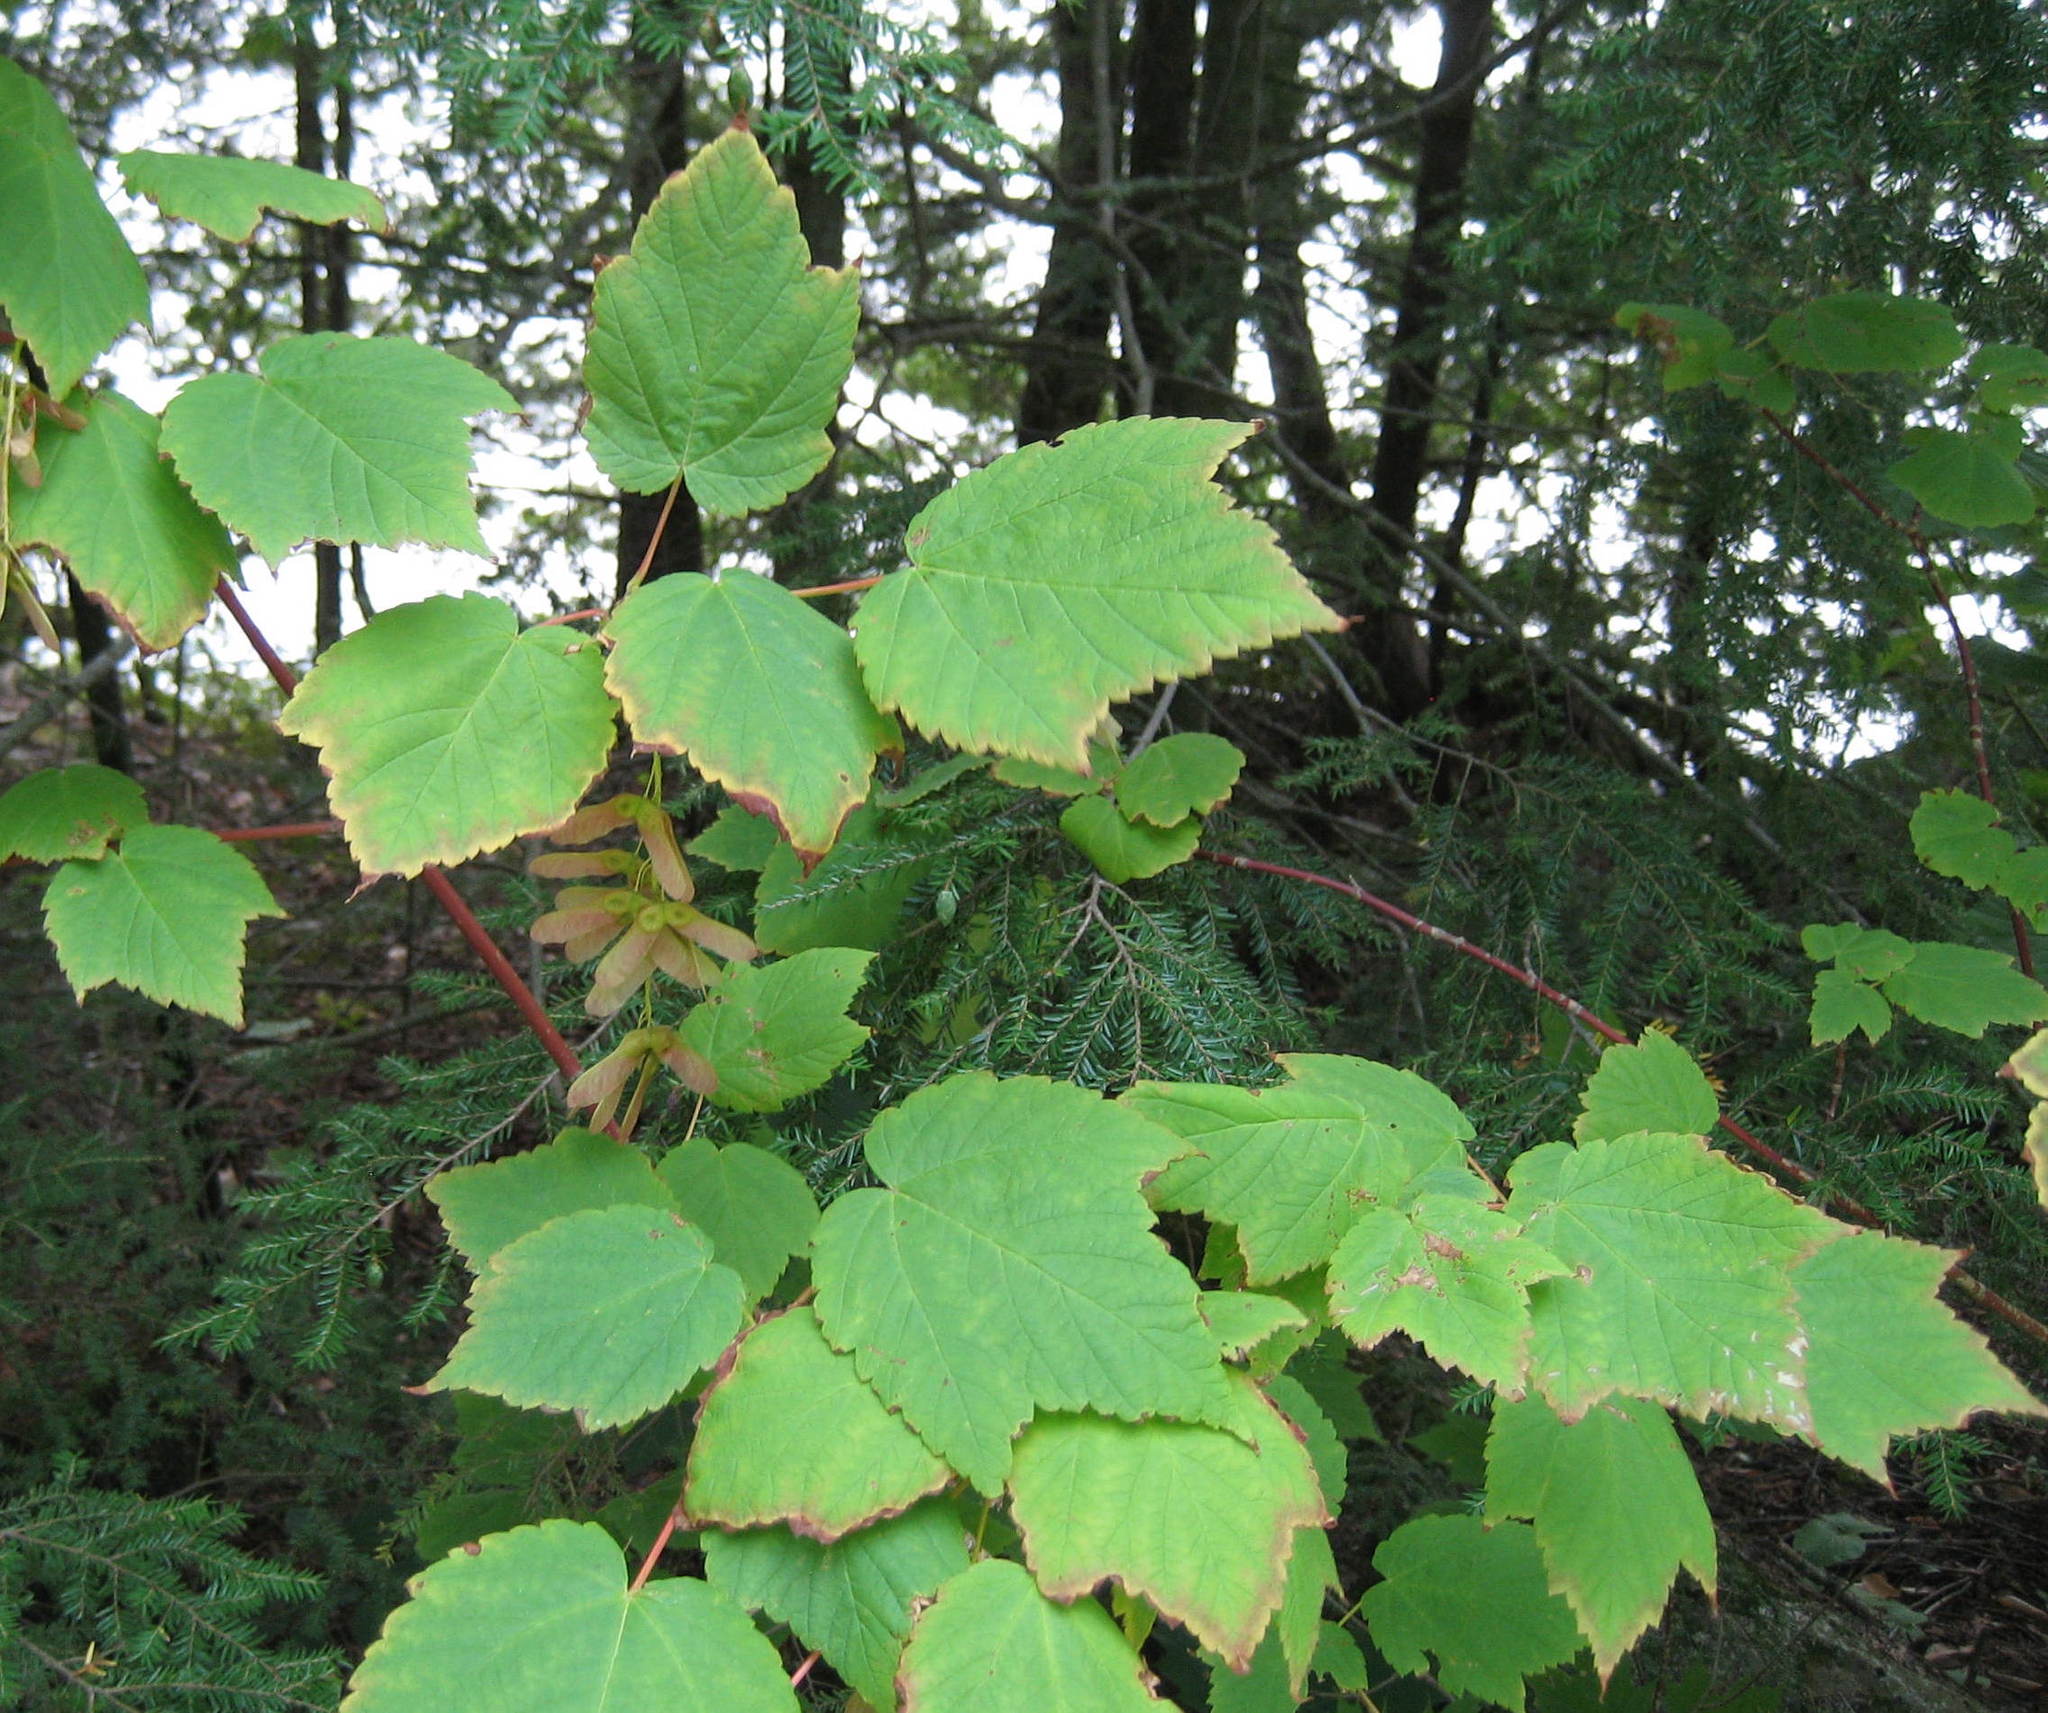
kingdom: Plantae
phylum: Tracheophyta
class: Magnoliopsida
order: Sapindales
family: Sapindaceae
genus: Acer
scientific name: Acer spicatum
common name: Mountain maple
